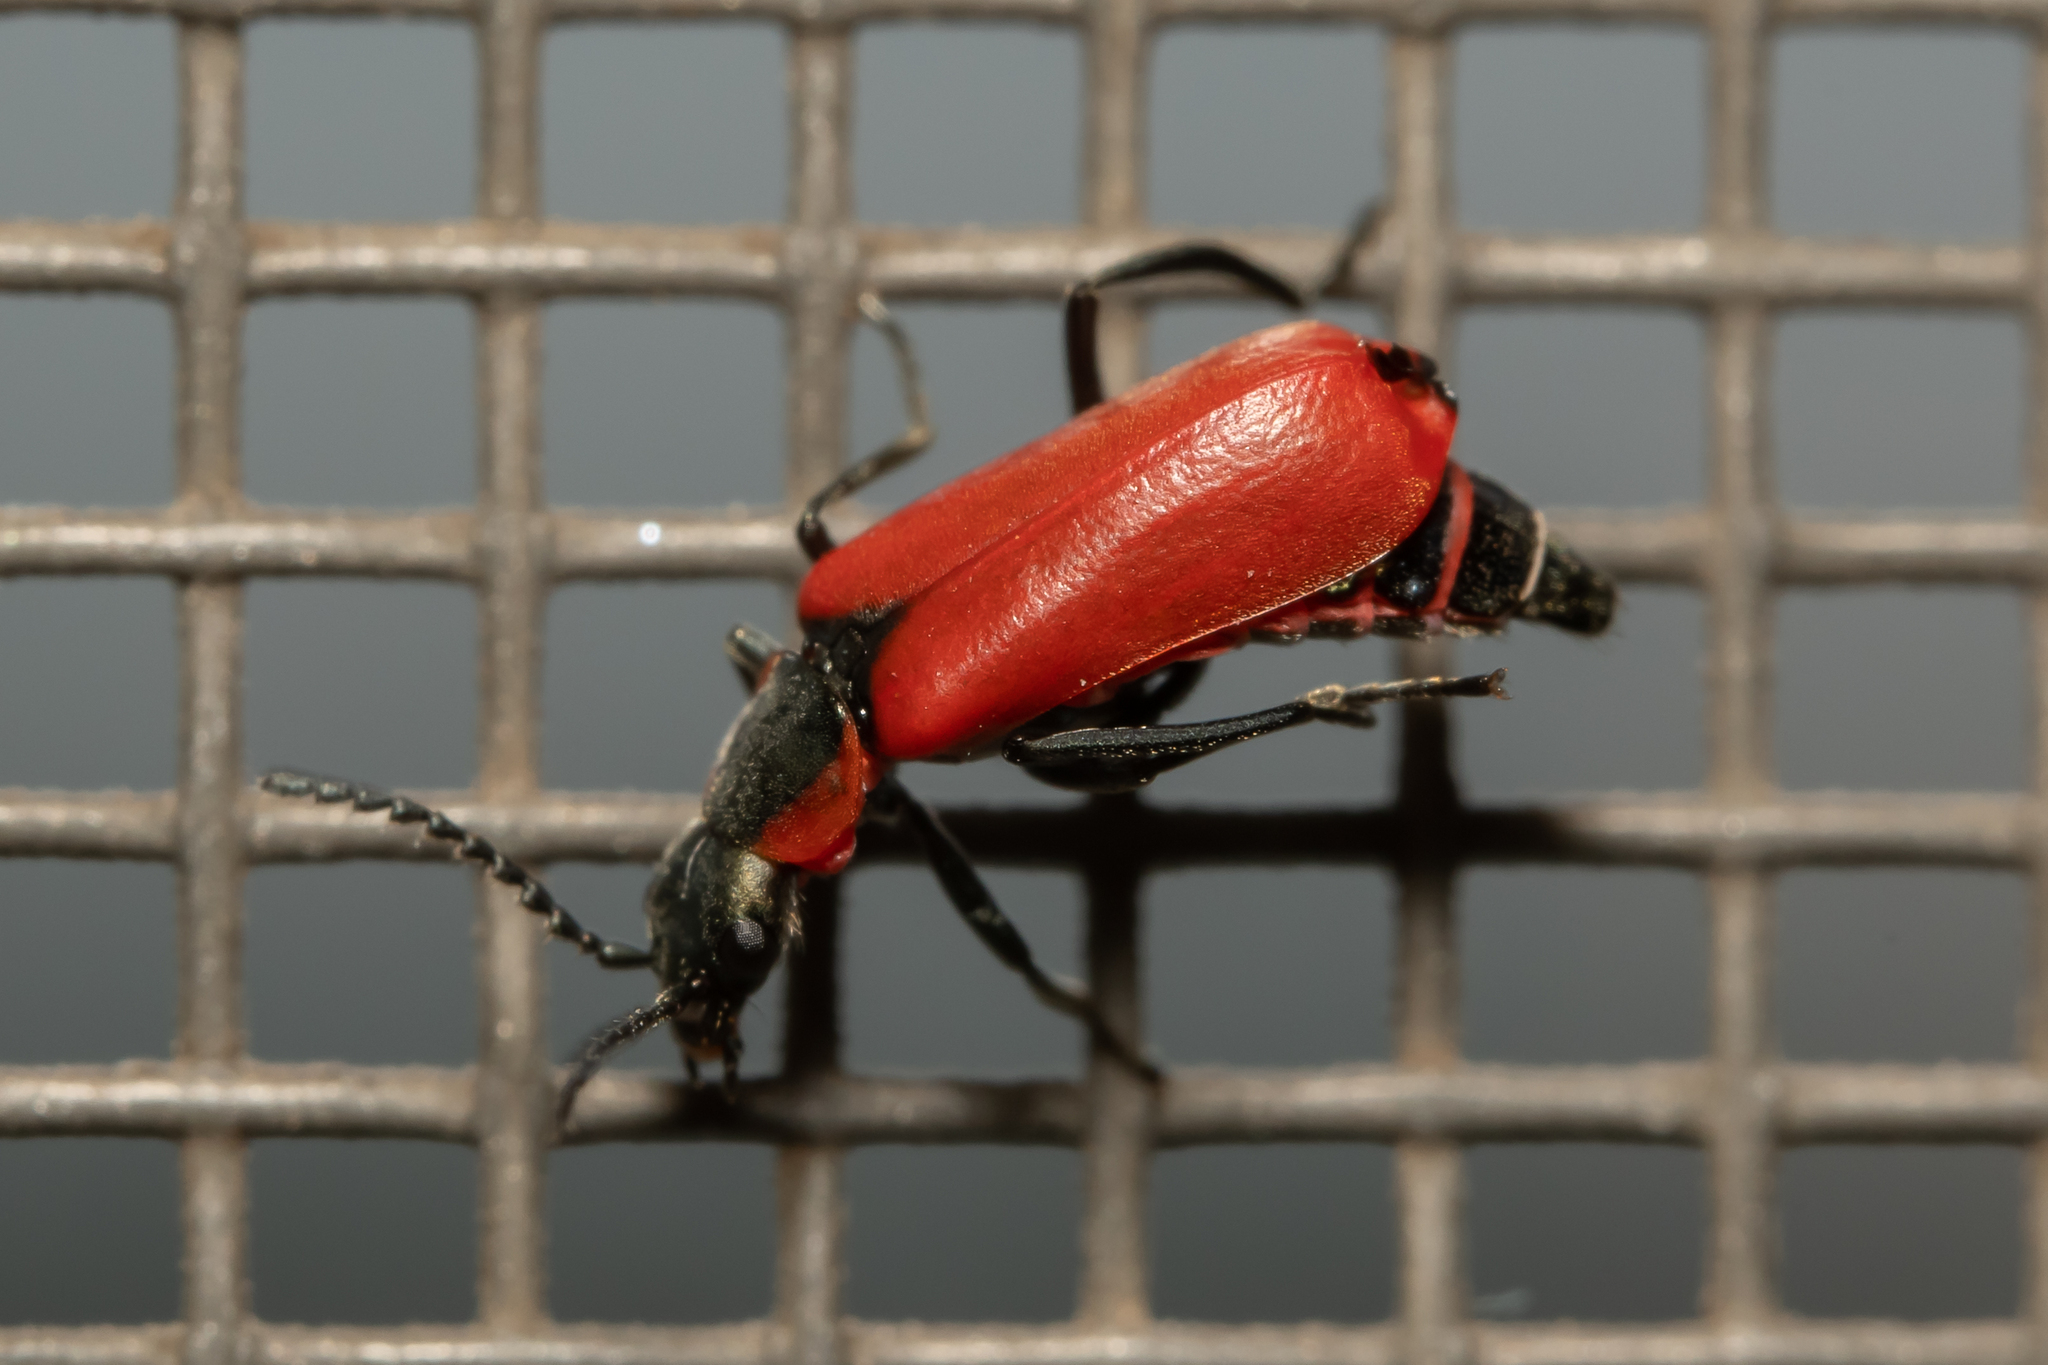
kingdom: Animalia
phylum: Arthropoda
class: Insecta
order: Coleoptera
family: Melyridae
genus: Anthocomus
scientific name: Anthocomus rufus
